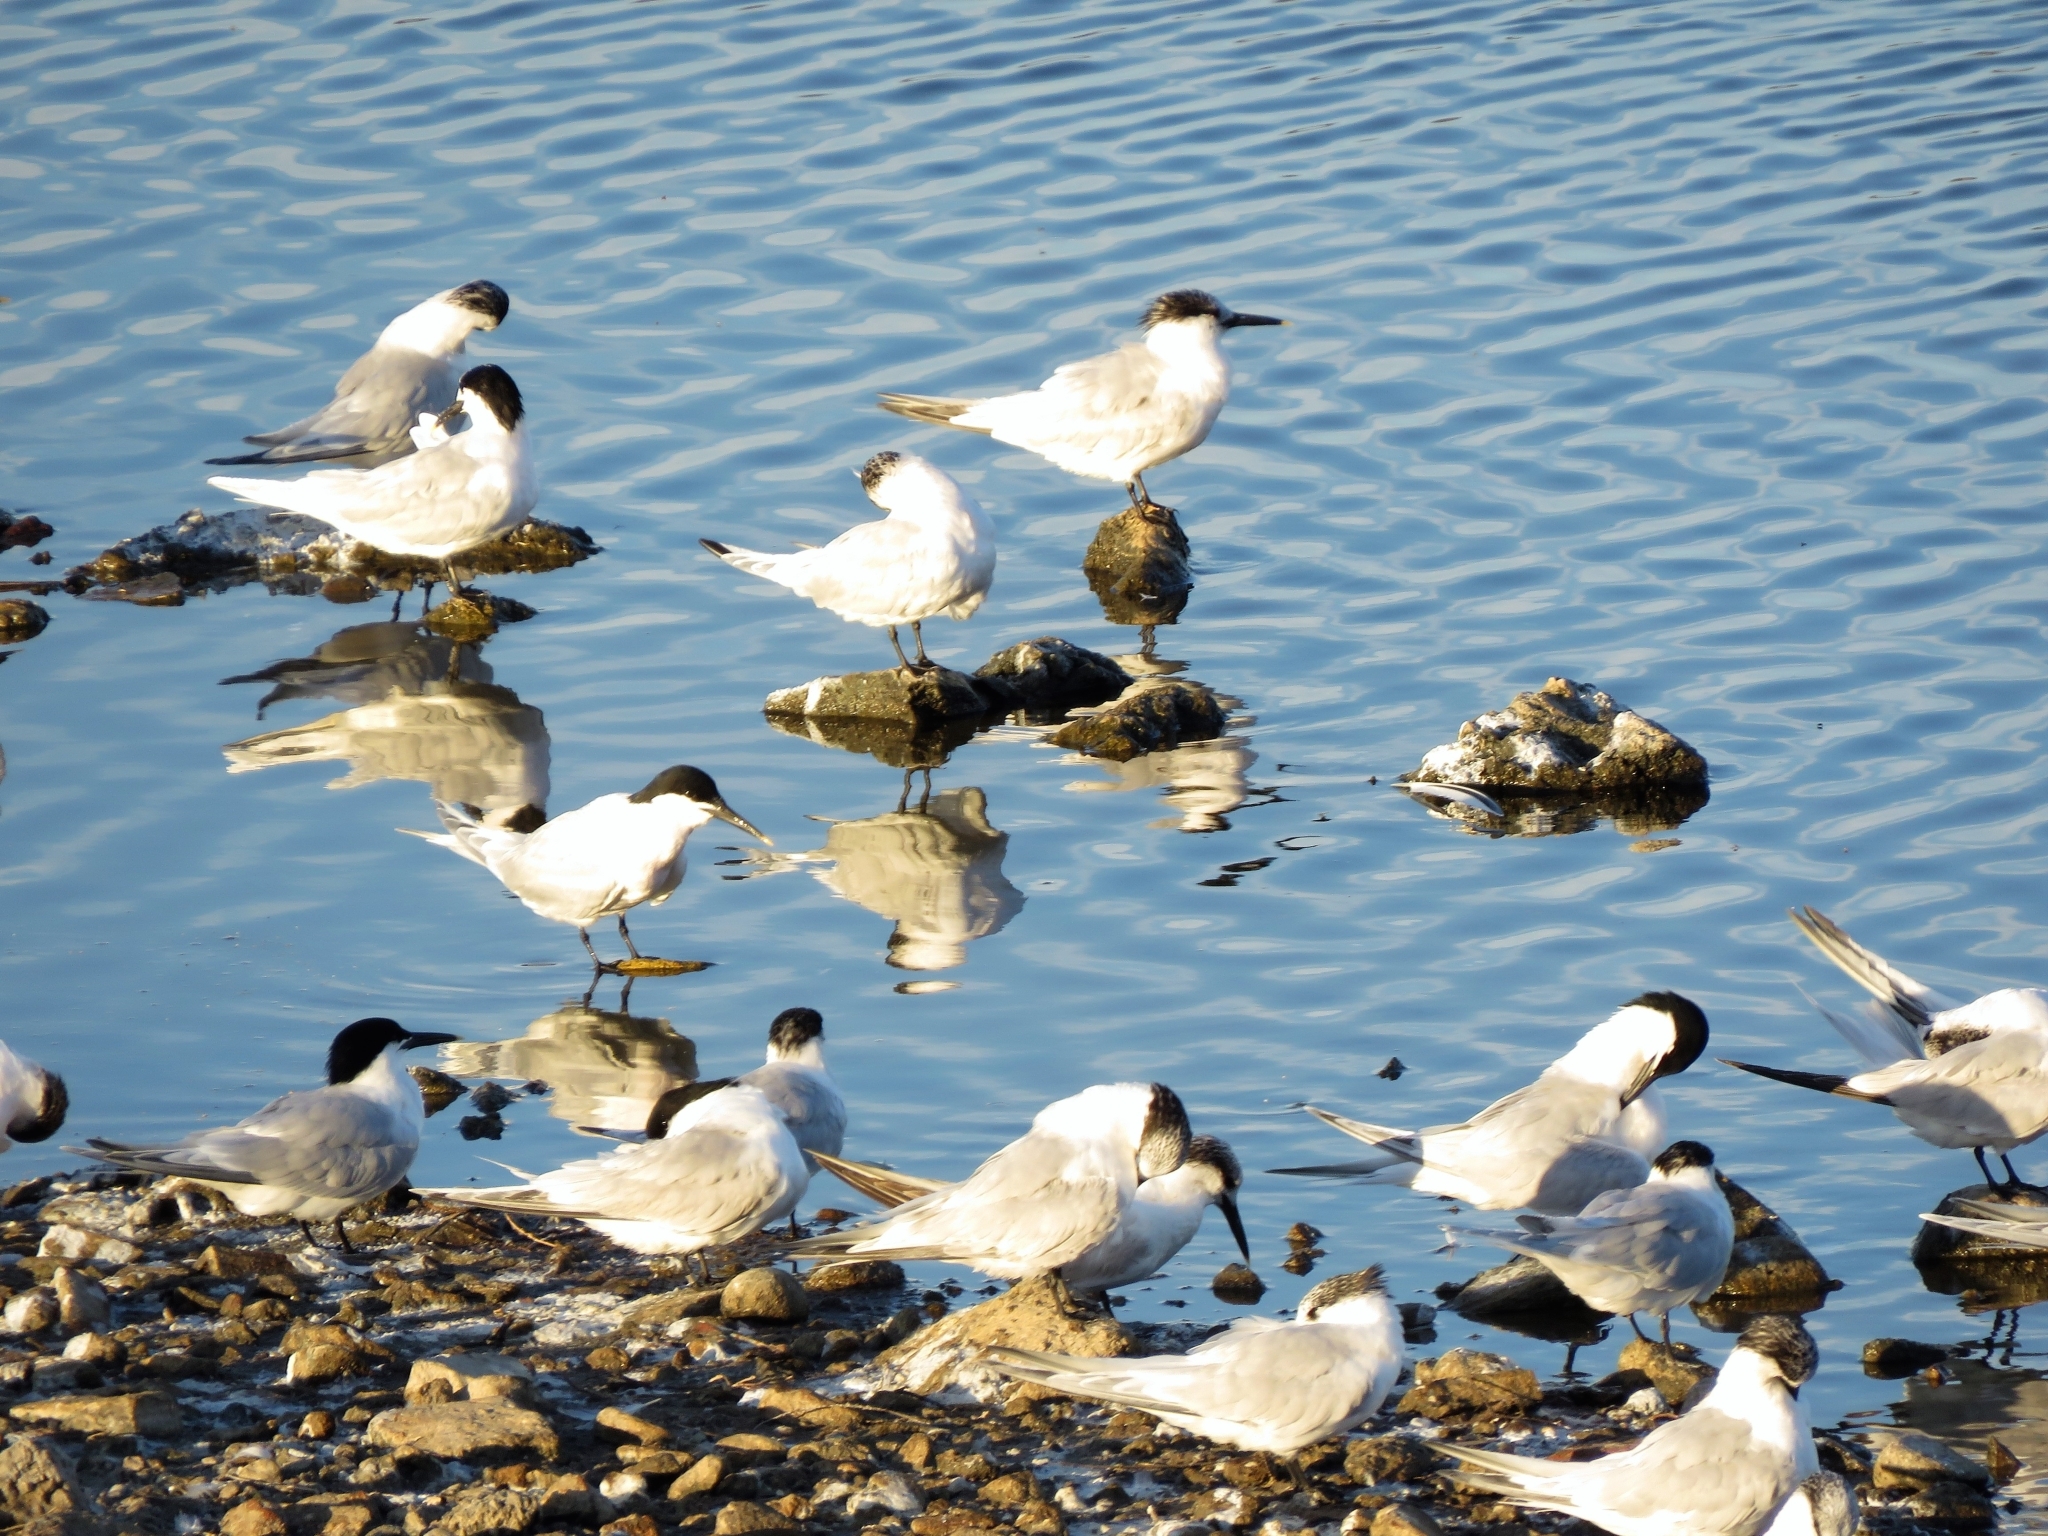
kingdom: Animalia
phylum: Chordata
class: Aves
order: Charadriiformes
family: Laridae
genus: Thalasseus
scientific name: Thalasseus sandvicensis
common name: Sandwich tern
